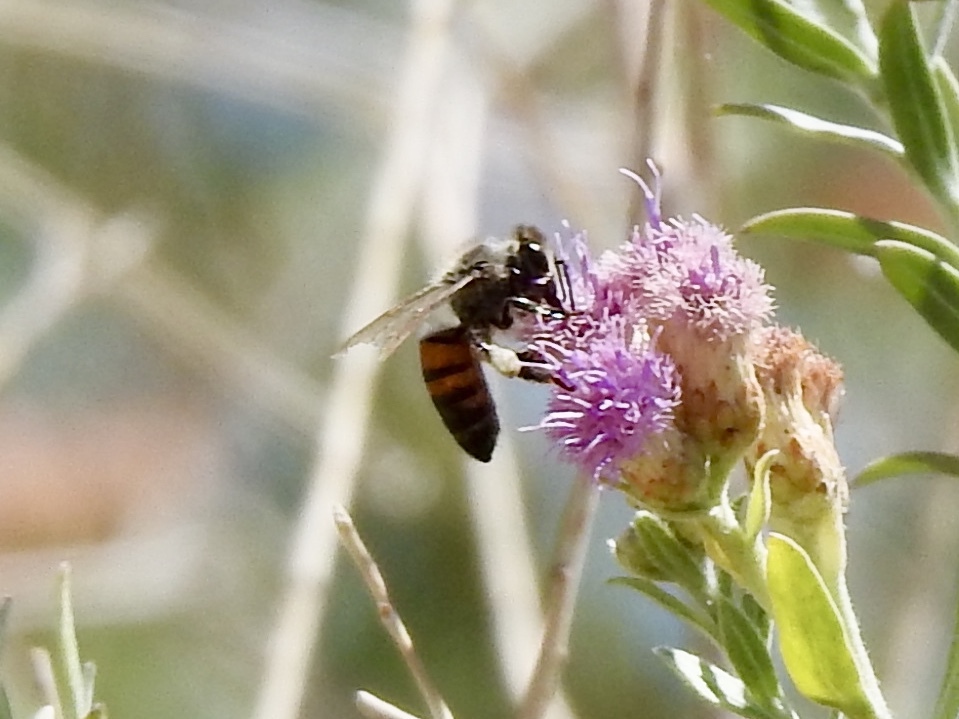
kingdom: Animalia
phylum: Arthropoda
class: Insecta
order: Hymenoptera
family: Apidae
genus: Apis
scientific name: Apis mellifera
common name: Honey bee
